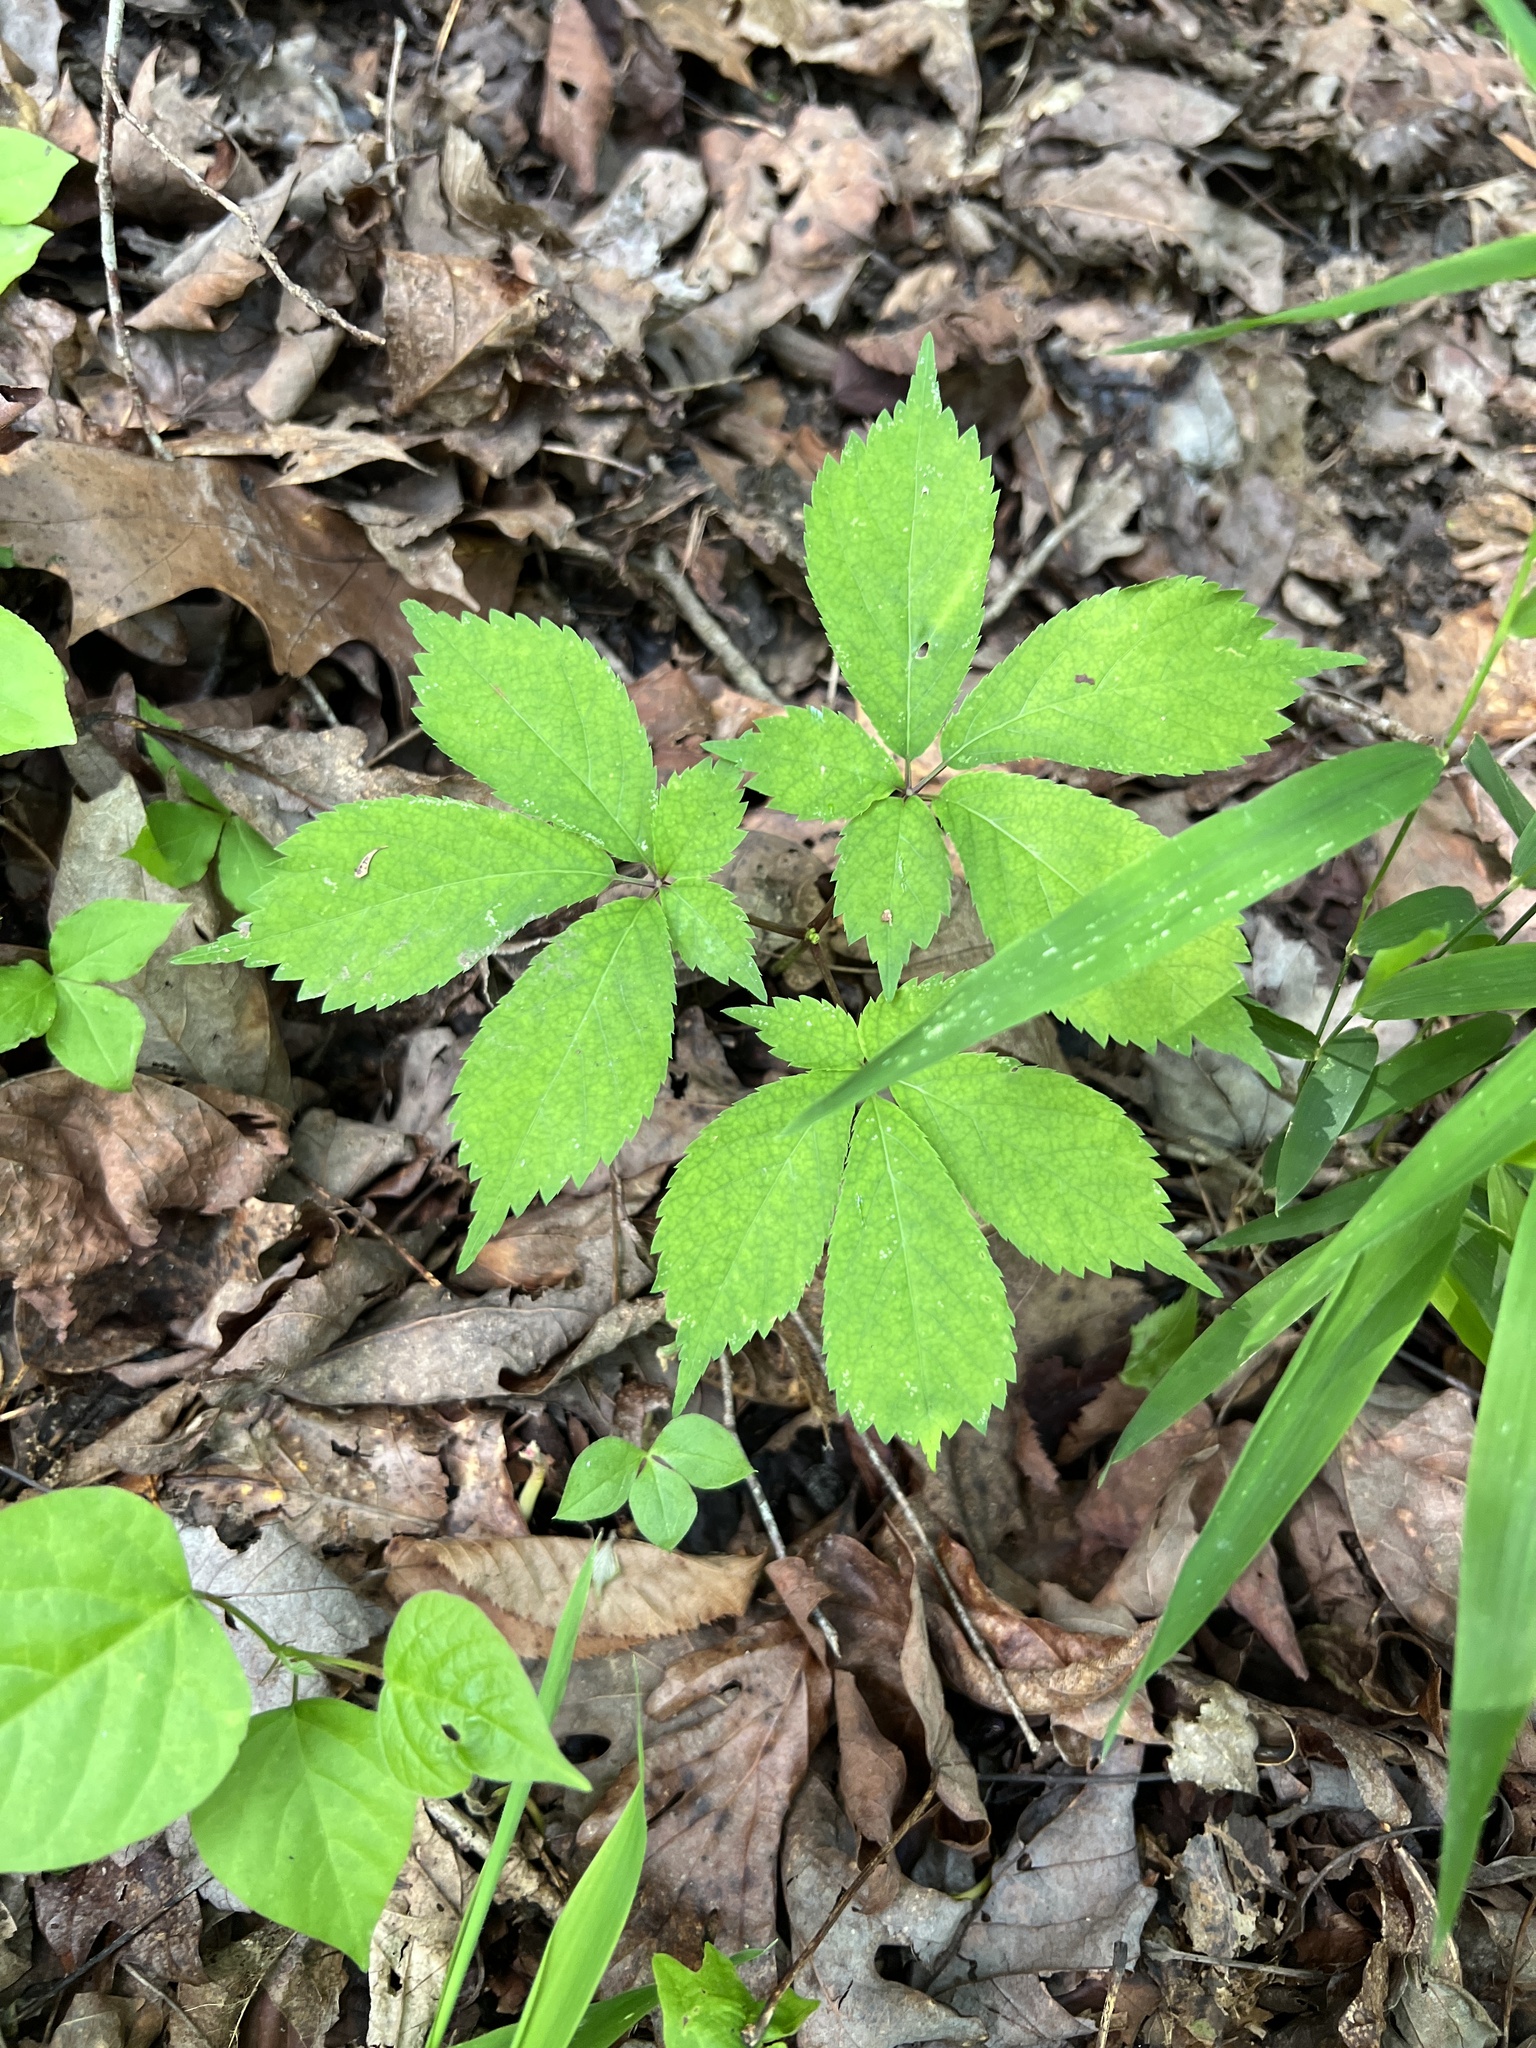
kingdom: Plantae
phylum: Tracheophyta
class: Magnoliopsida
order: Apiales
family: Araliaceae
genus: Panax
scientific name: Panax quinquefolius
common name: American ginseng
